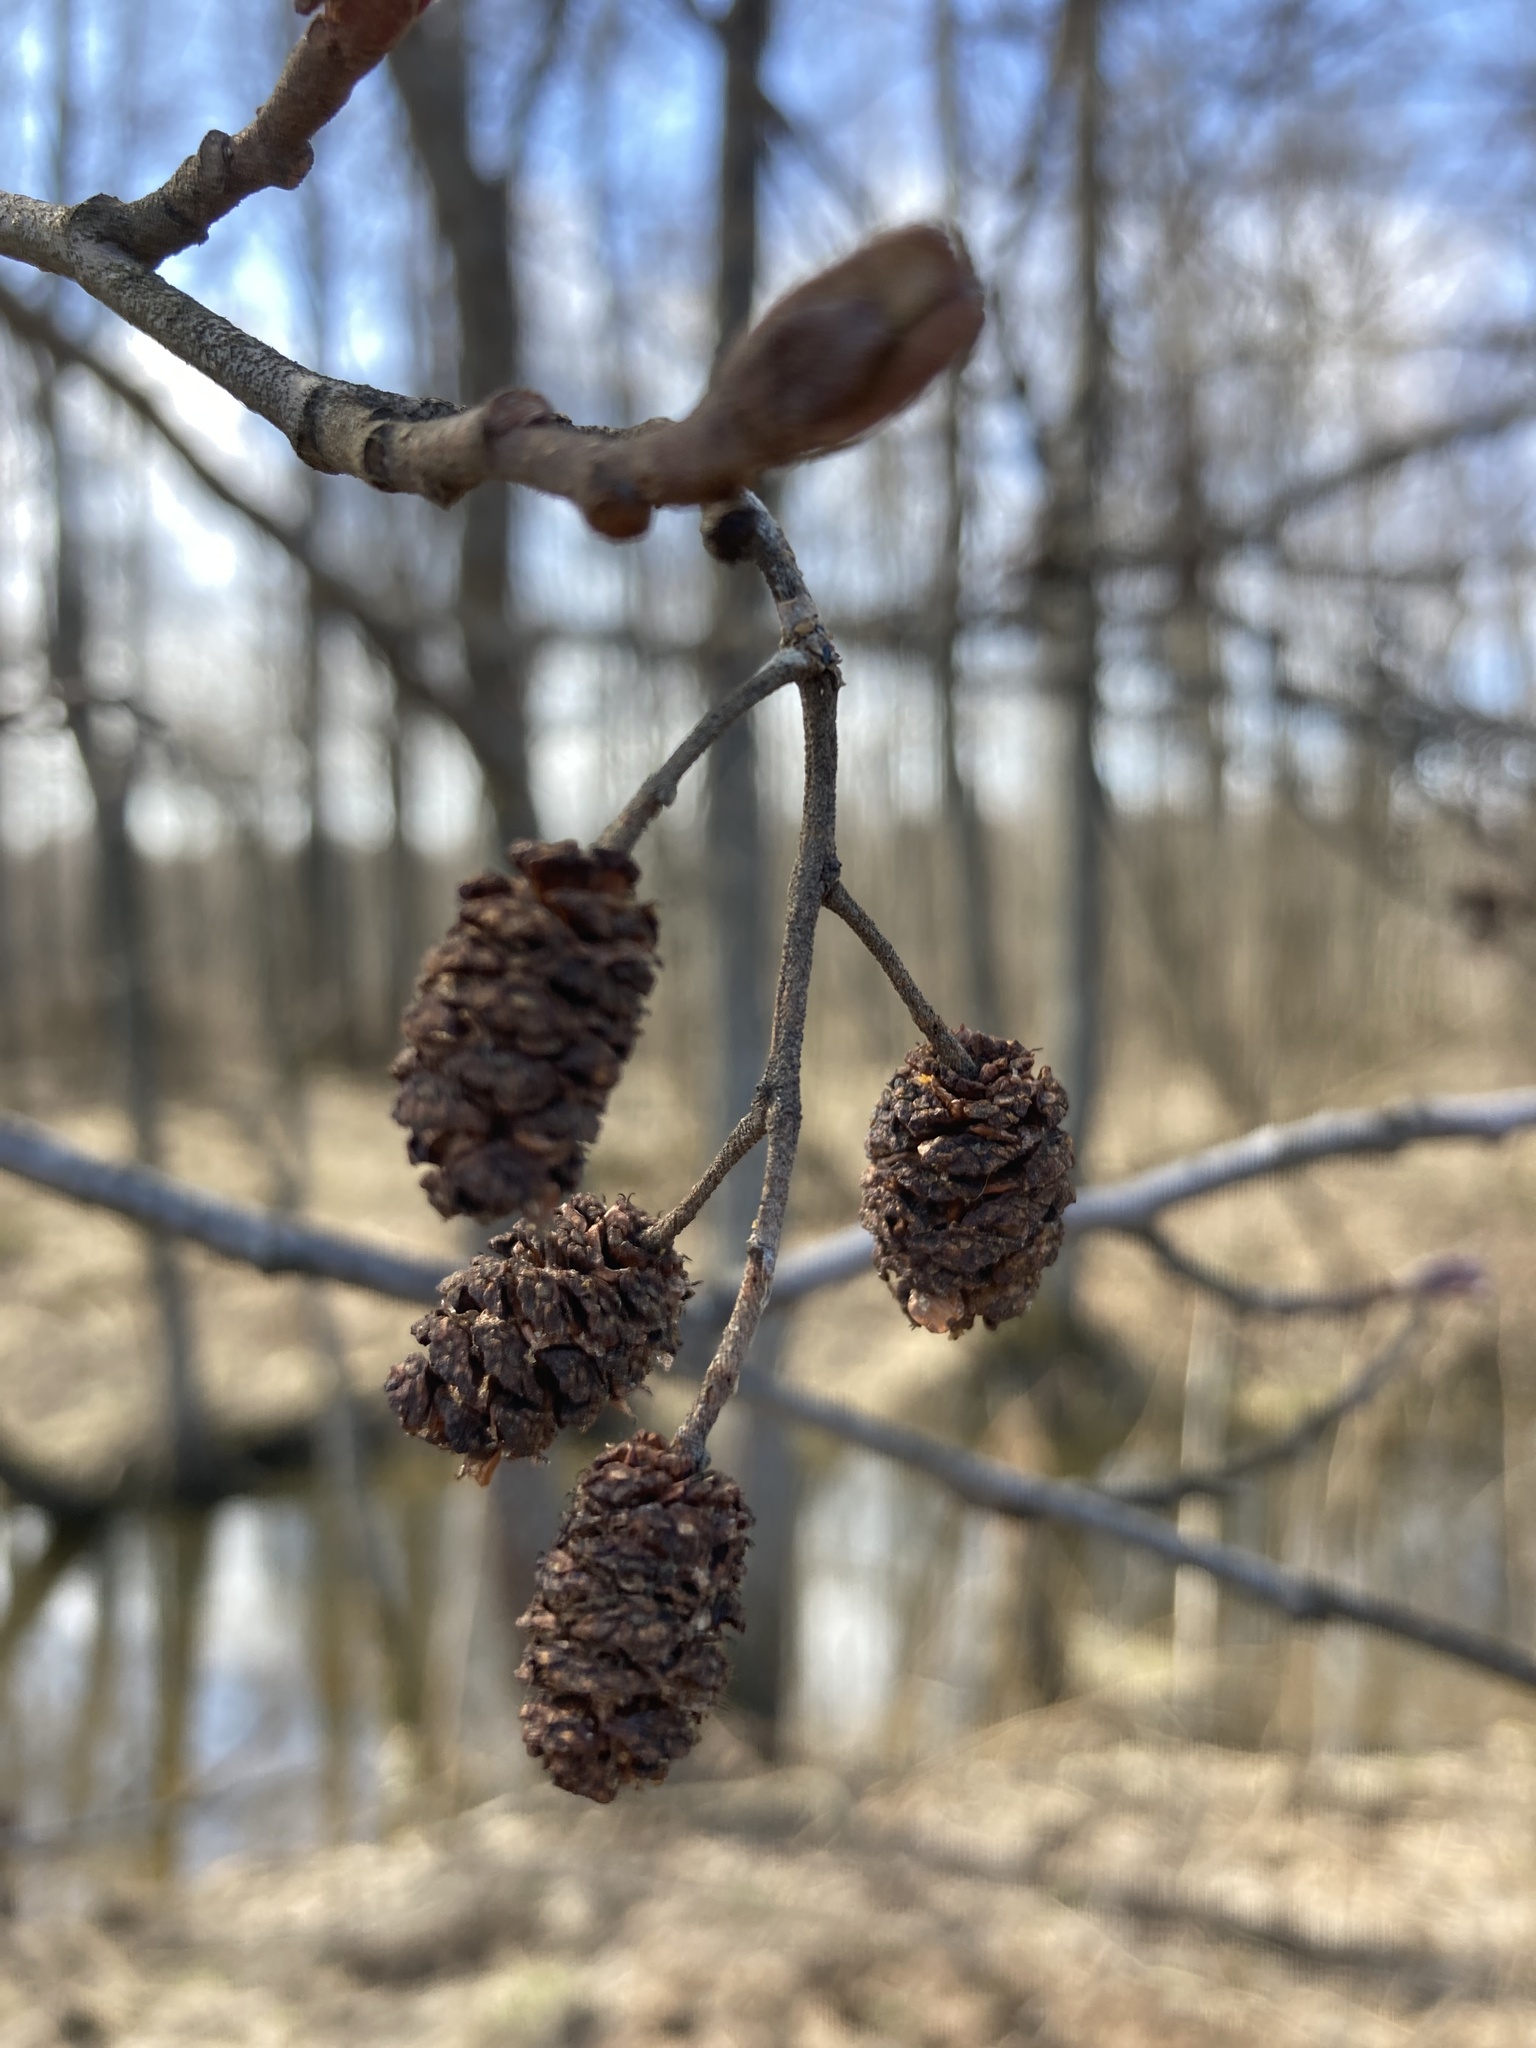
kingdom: Plantae
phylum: Tracheophyta
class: Magnoliopsida
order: Fagales
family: Betulaceae
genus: Alnus
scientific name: Alnus glutinosa
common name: Black alder
